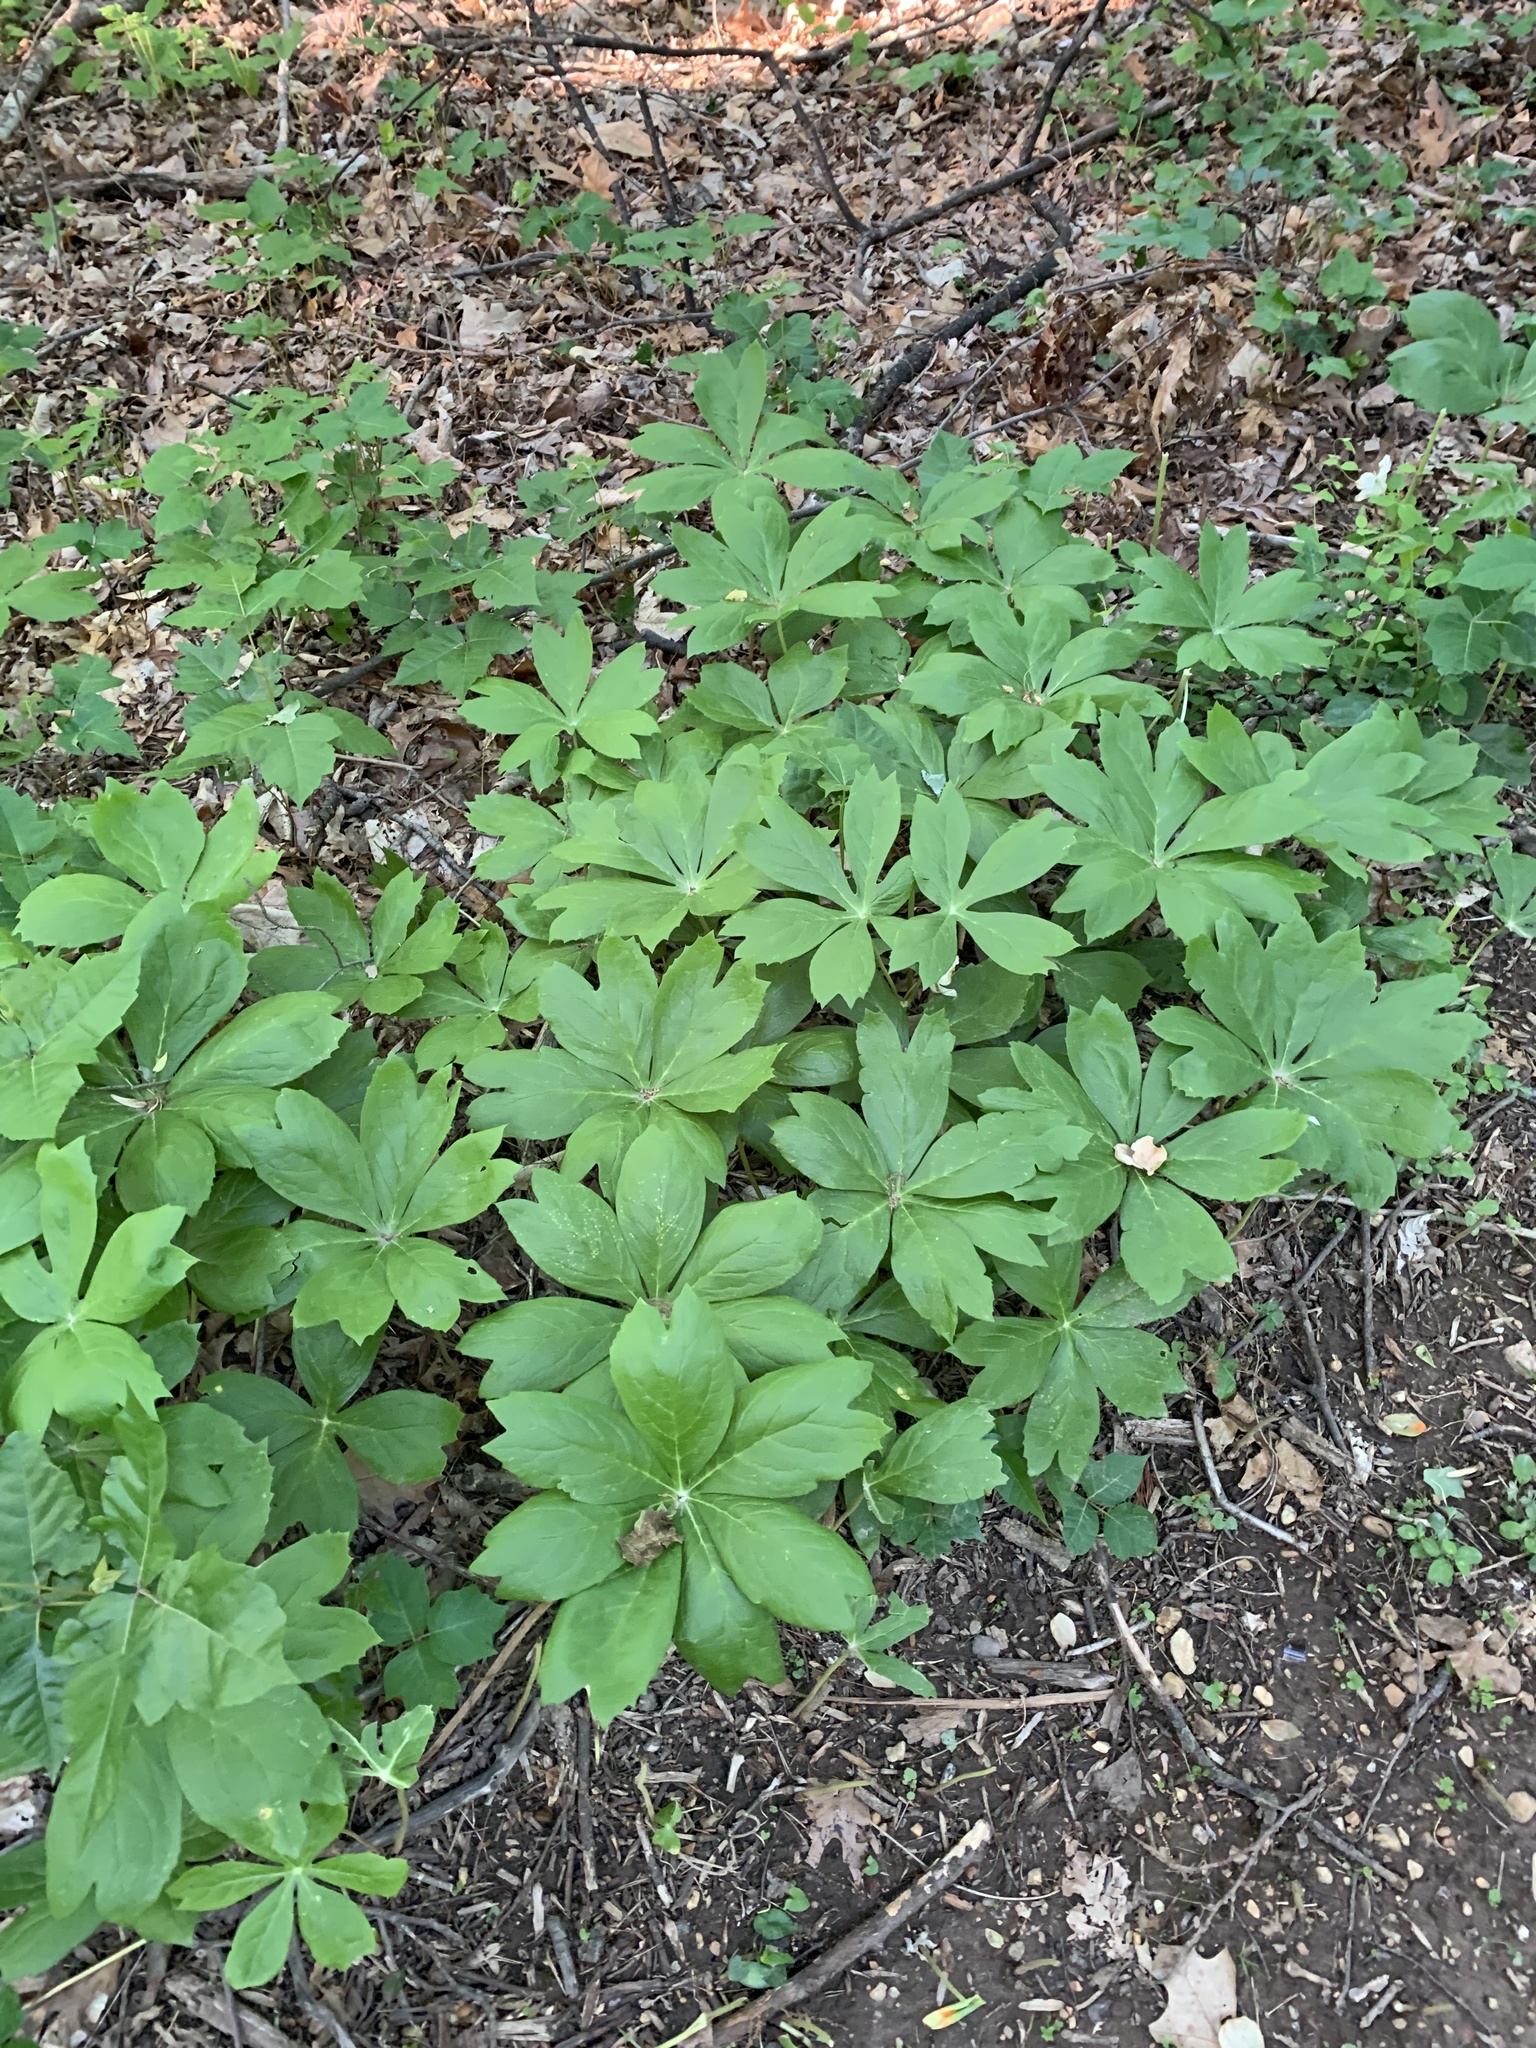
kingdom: Plantae
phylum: Tracheophyta
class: Magnoliopsida
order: Ranunculales
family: Berberidaceae
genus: Podophyllum
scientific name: Podophyllum peltatum
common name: Wild mandrake
